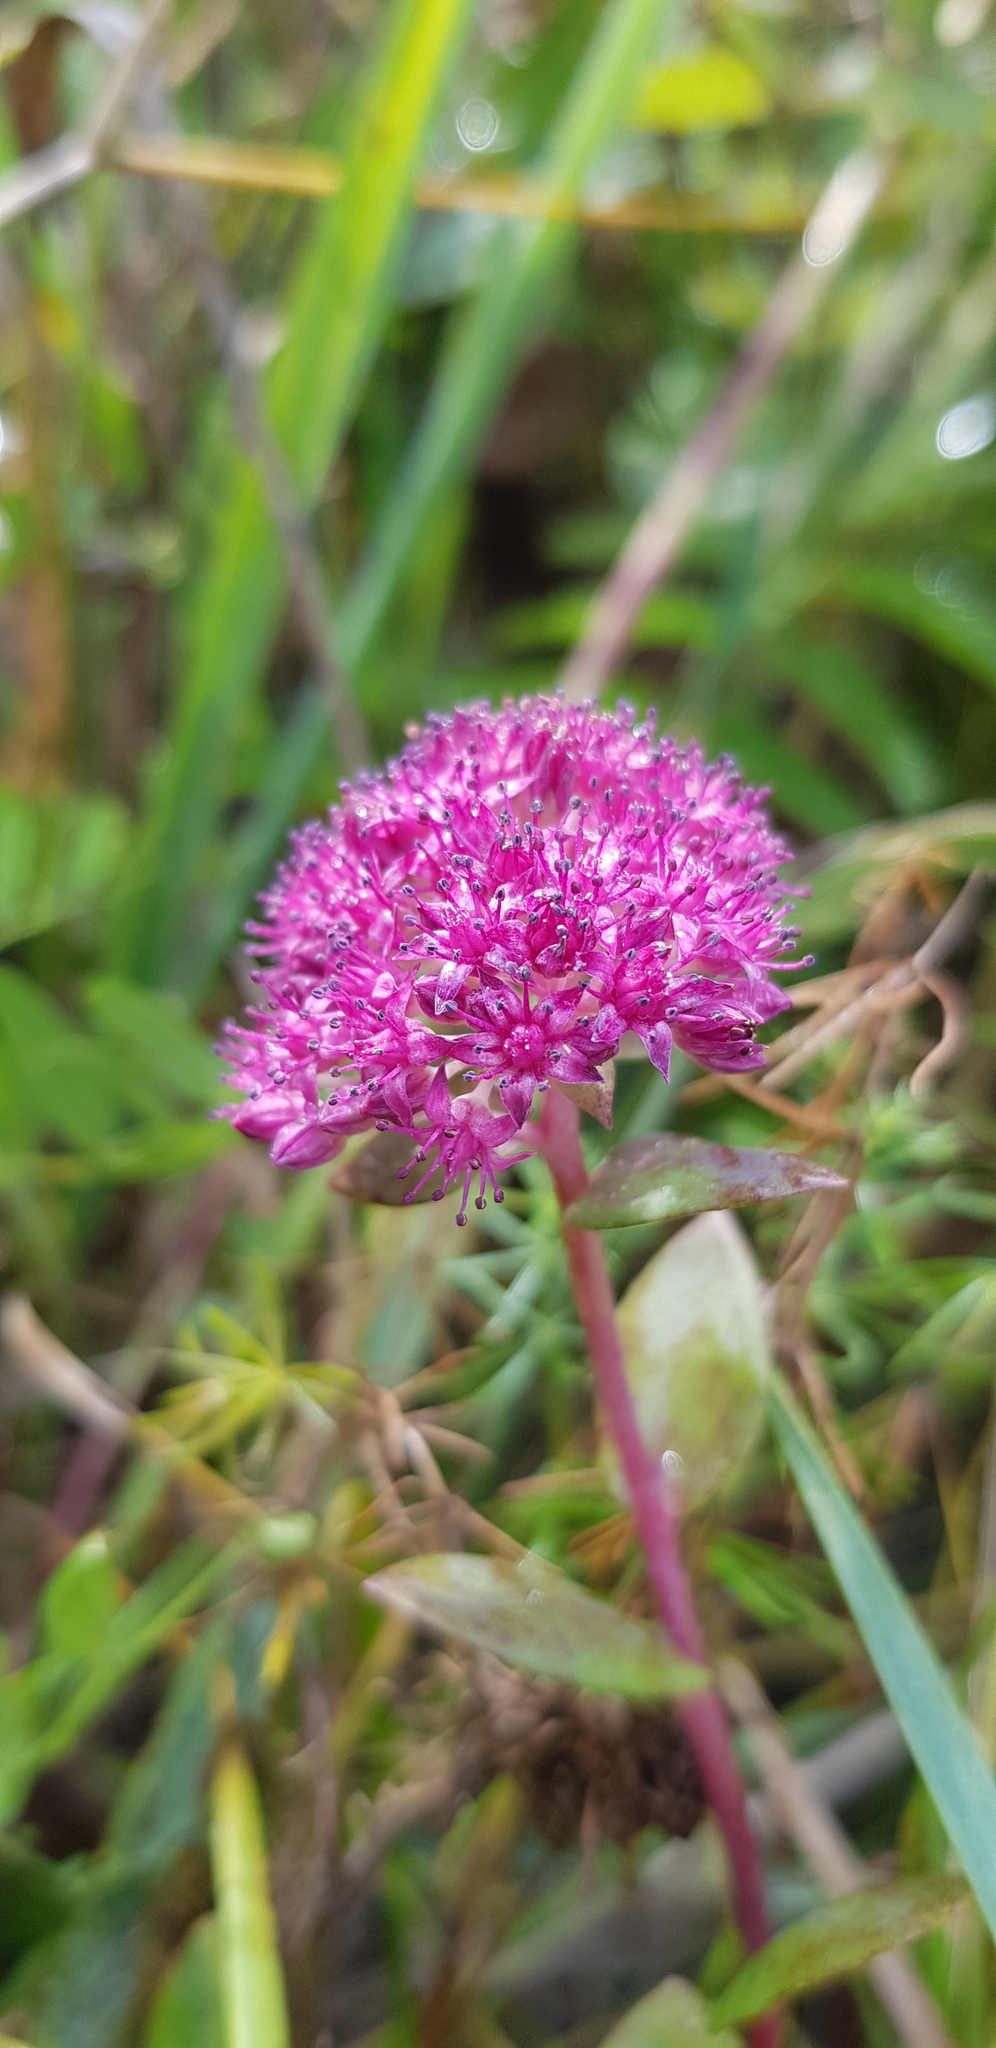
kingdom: Plantae
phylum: Tracheophyta
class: Magnoliopsida
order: Saxifragales
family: Crassulaceae
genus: Hylotelephium
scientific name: Hylotelephium telephium
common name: Live-forever
